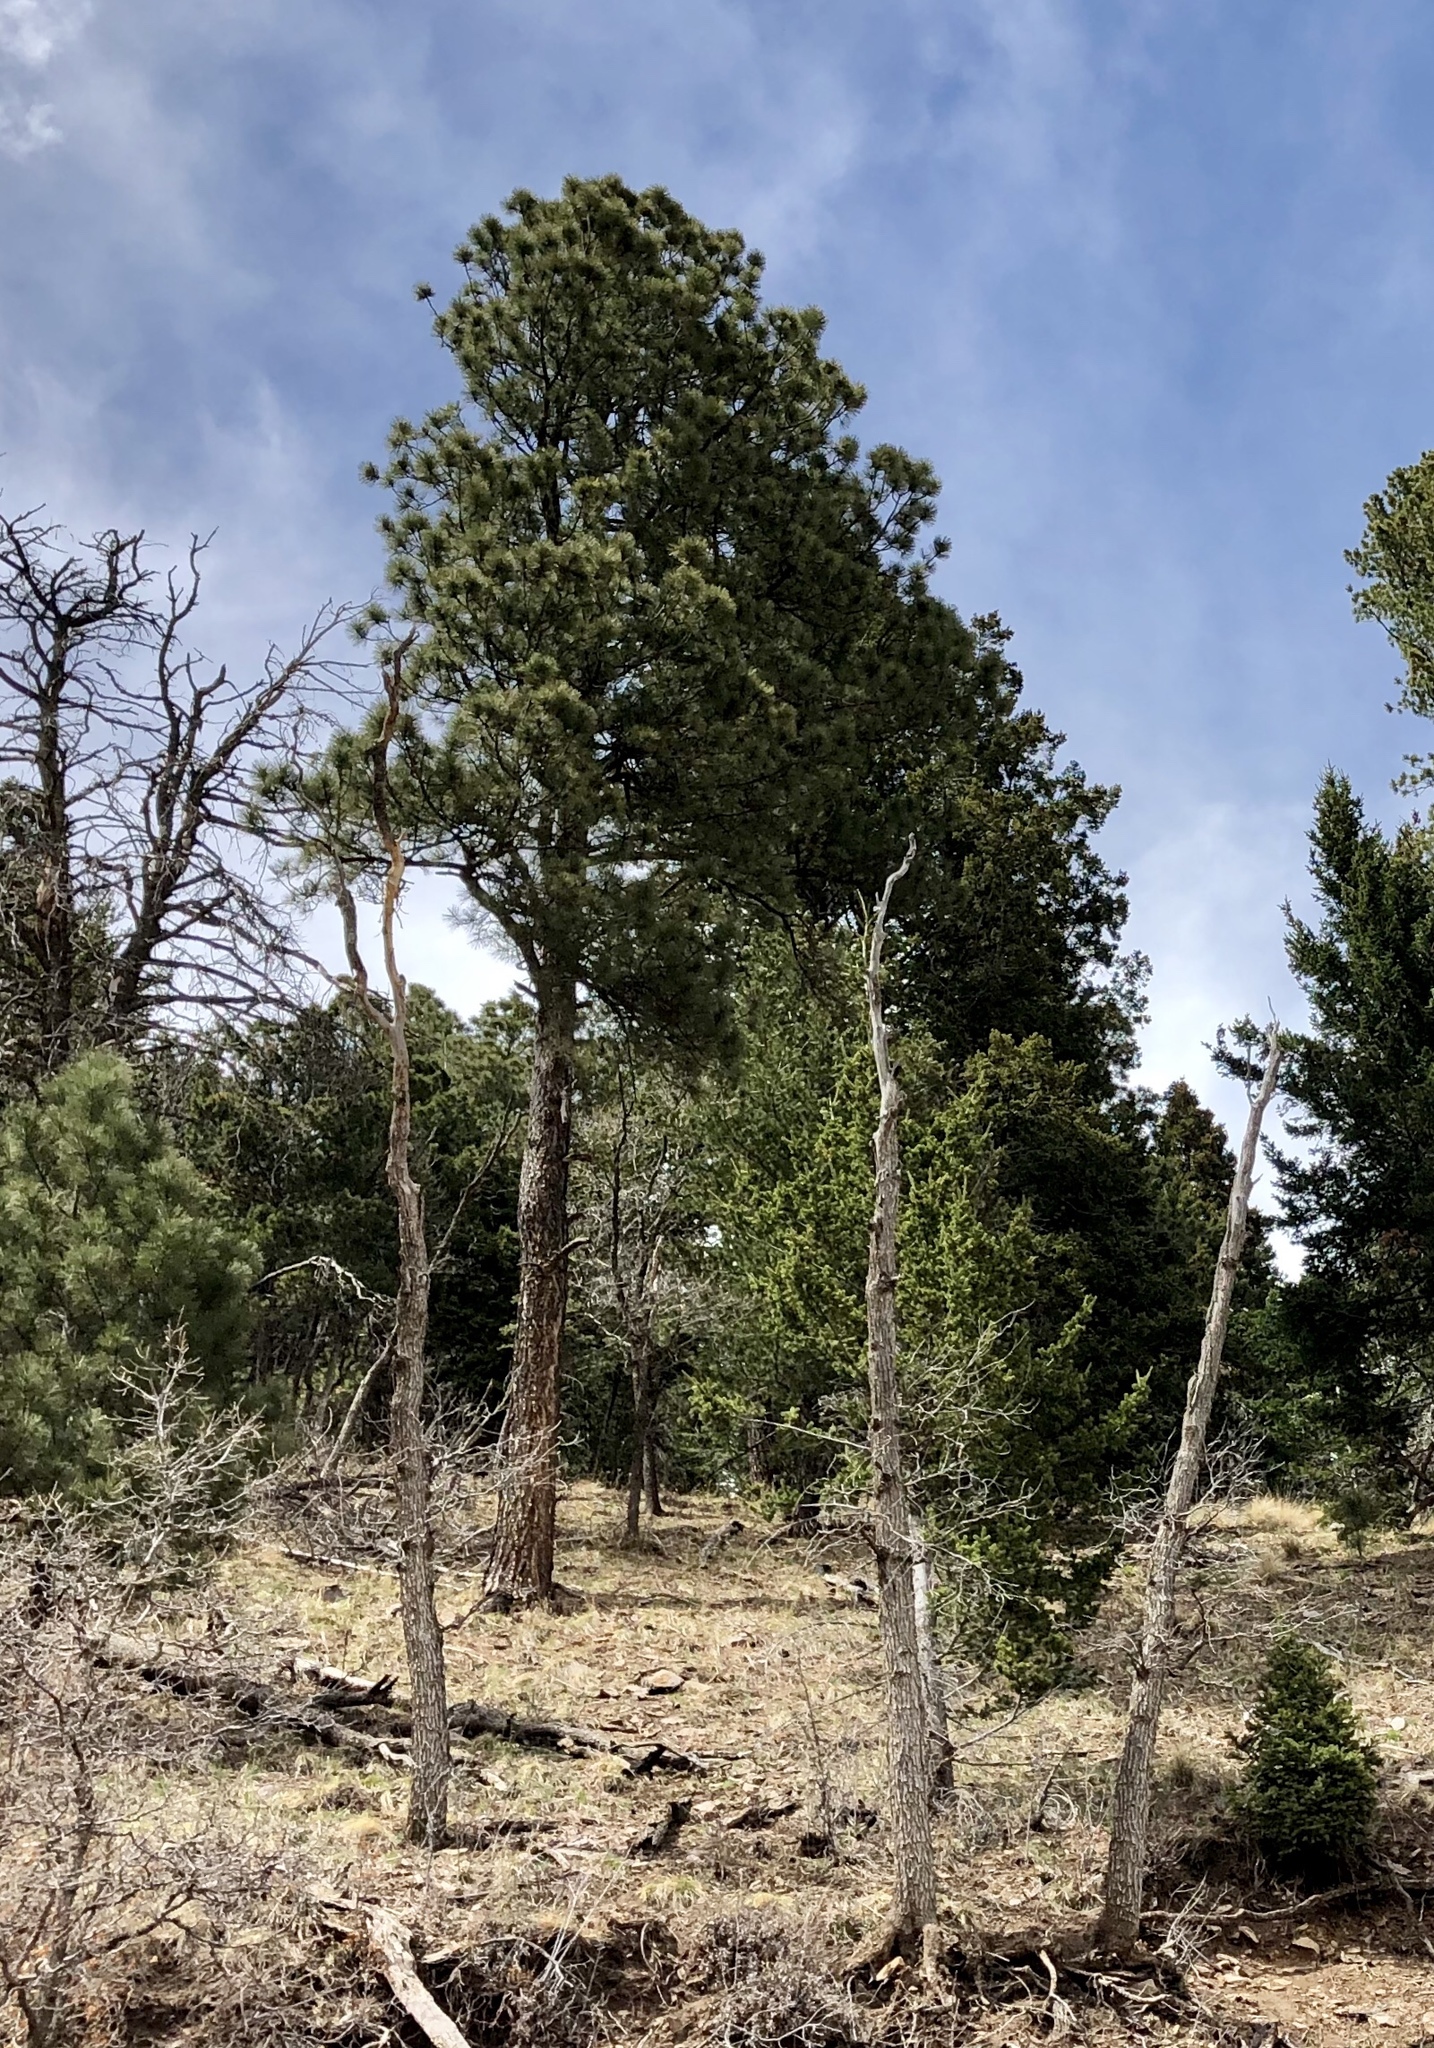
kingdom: Plantae
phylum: Tracheophyta
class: Pinopsida
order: Pinales
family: Pinaceae
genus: Pinus
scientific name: Pinus ponderosa
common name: Western yellow-pine
